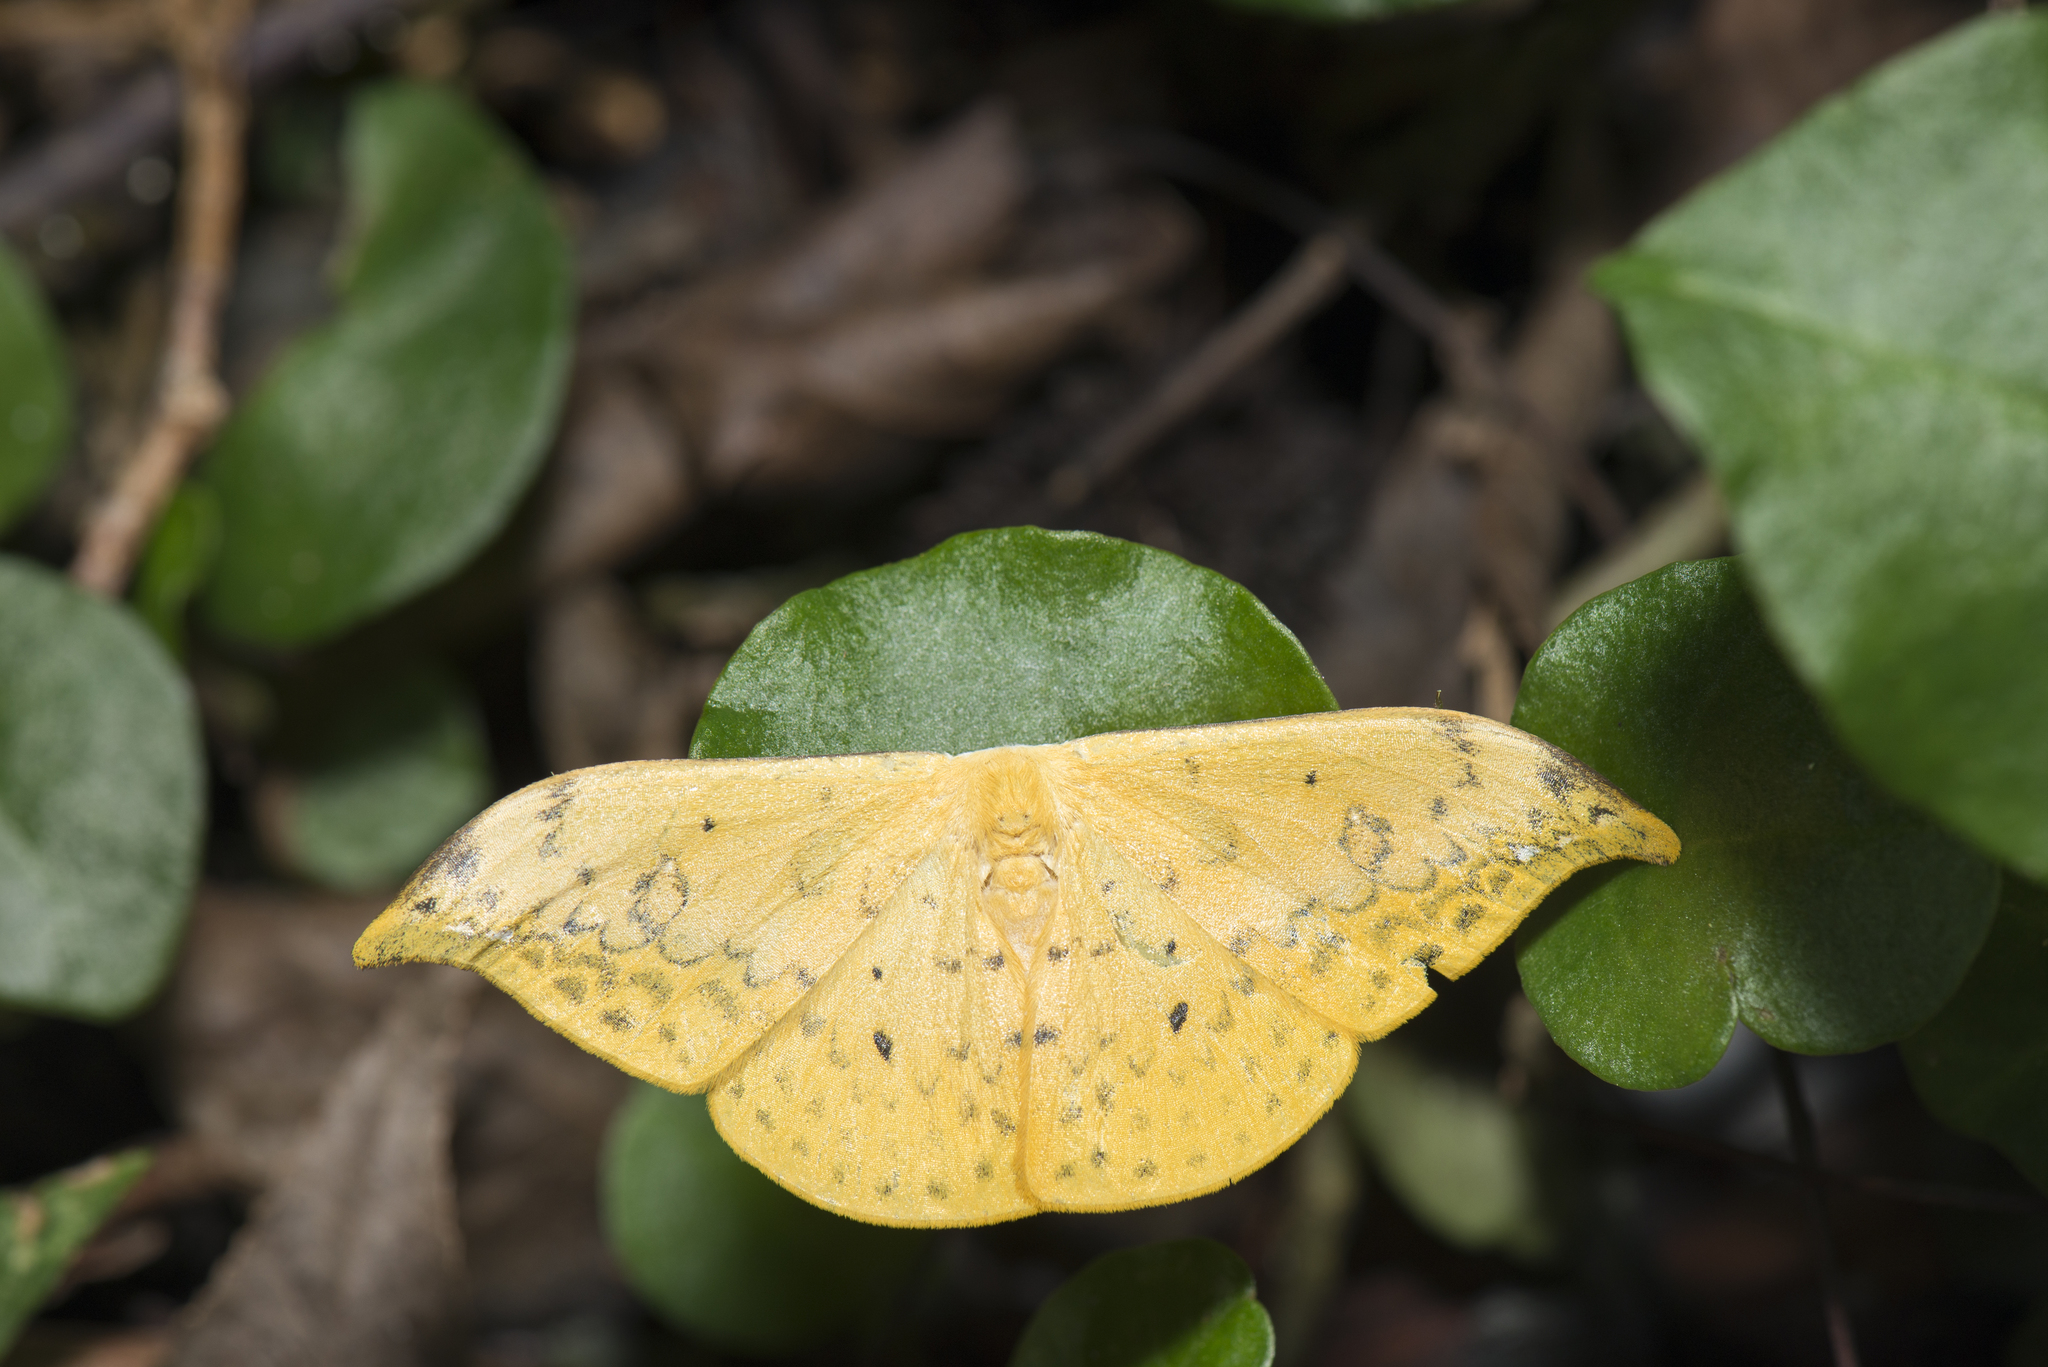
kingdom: Animalia
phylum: Arthropoda
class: Insecta
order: Lepidoptera
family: Drepanidae
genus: Tridrepana
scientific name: Tridrepana flava
